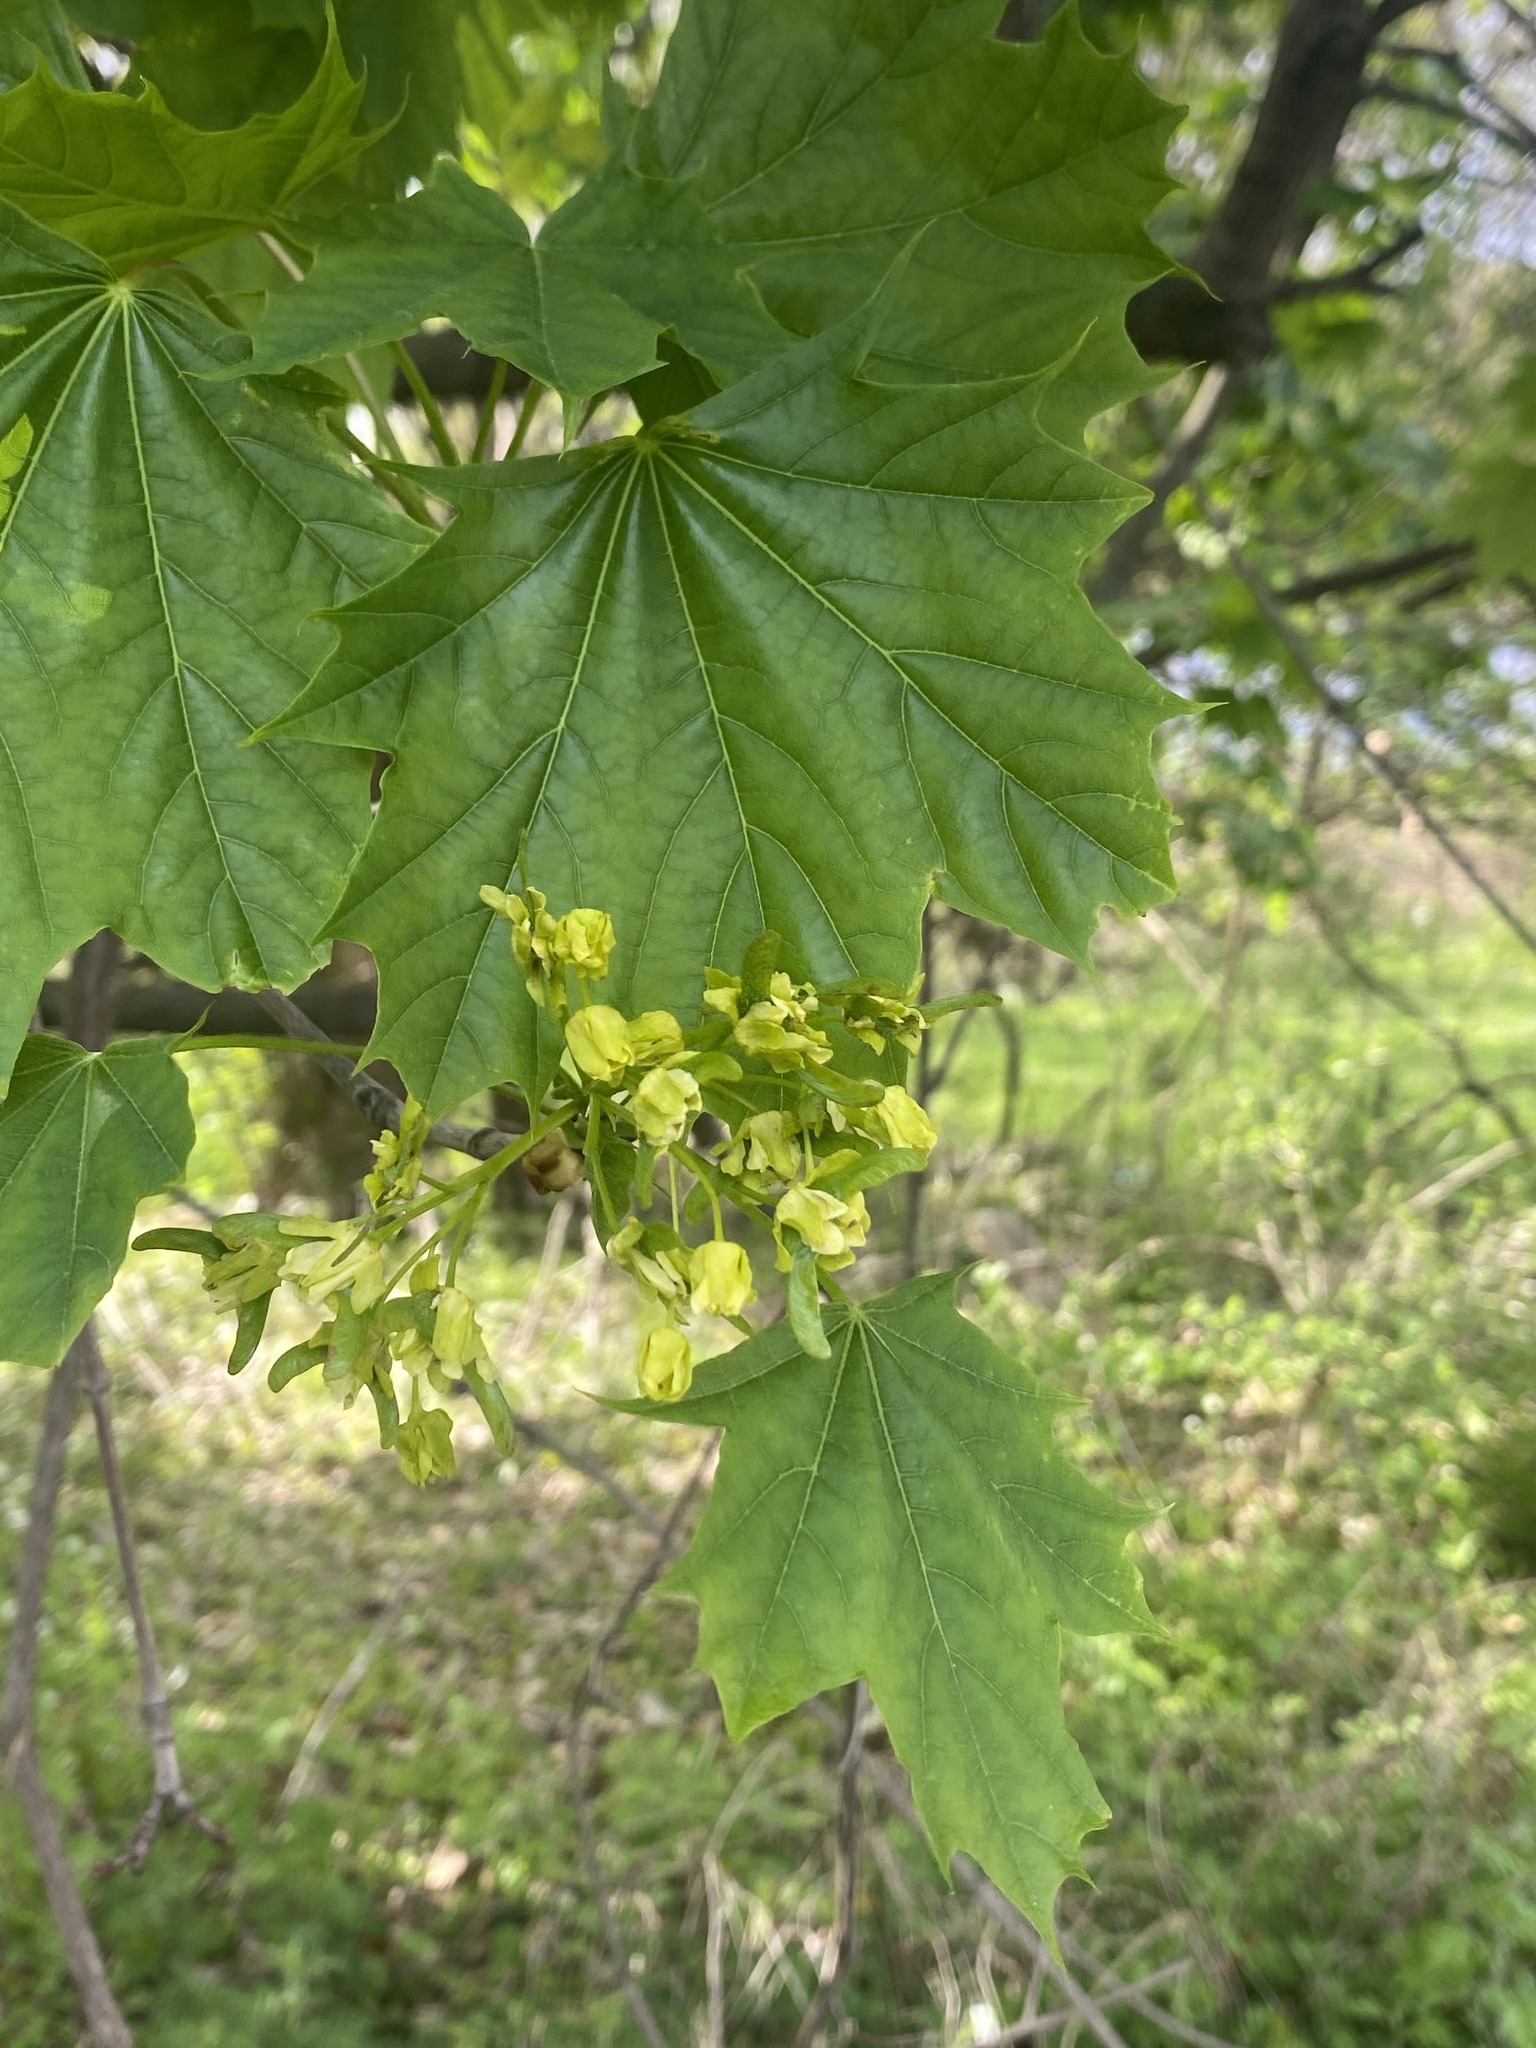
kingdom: Plantae
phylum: Tracheophyta
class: Magnoliopsida
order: Sapindales
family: Sapindaceae
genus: Acer
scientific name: Acer platanoides
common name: Norway maple
